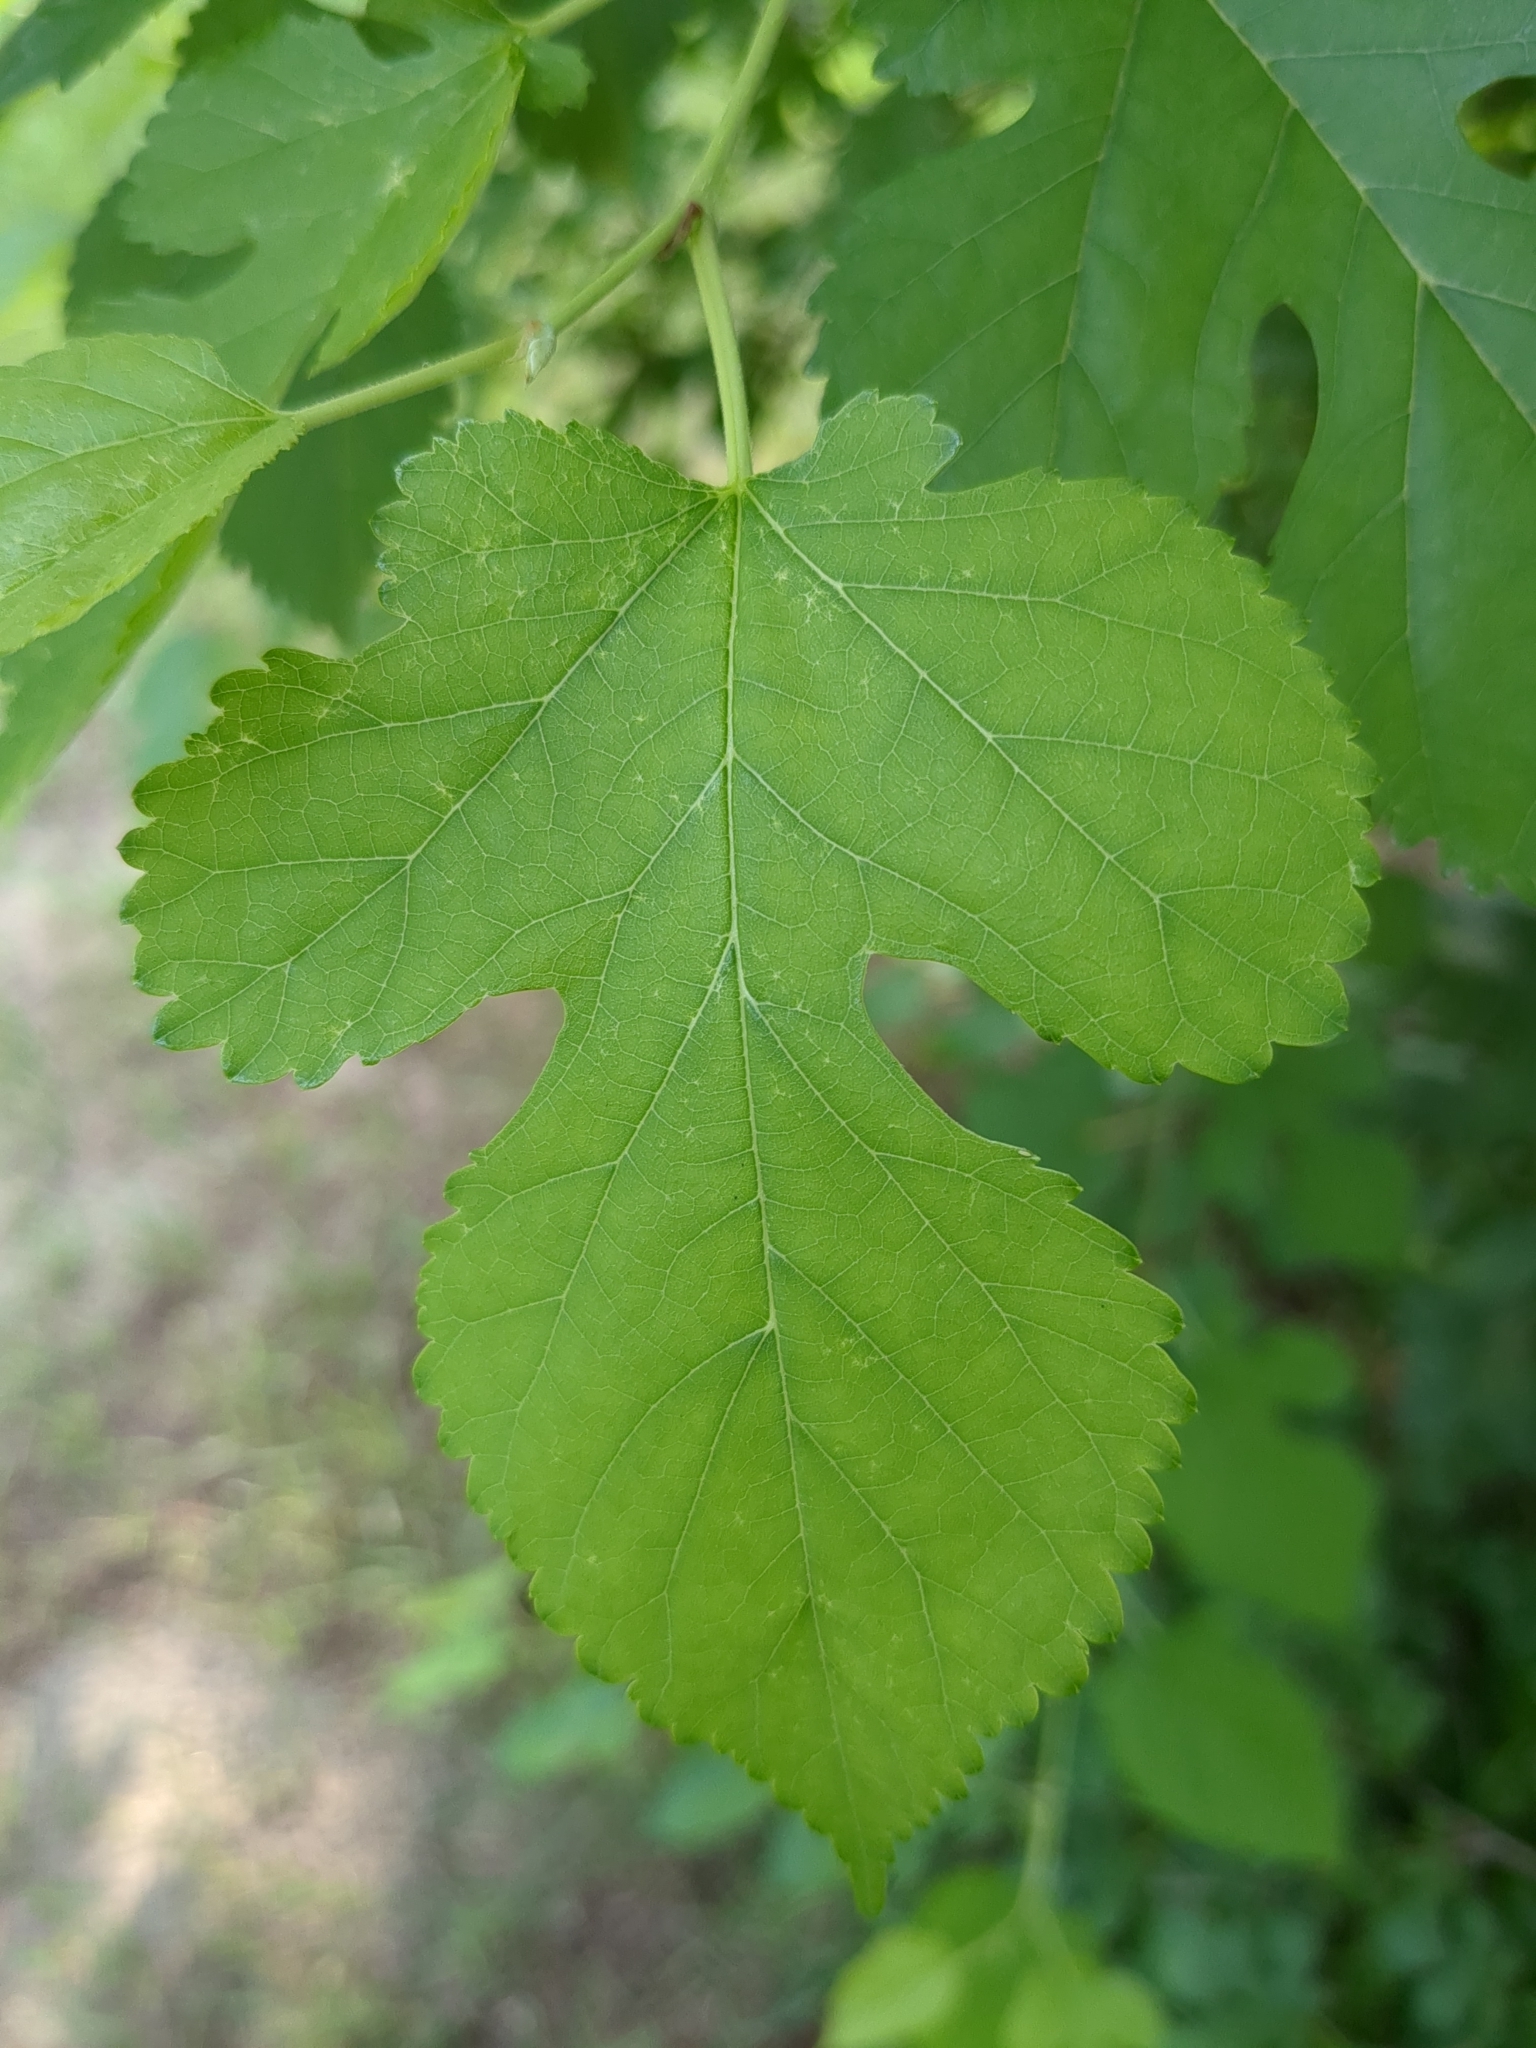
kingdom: Plantae
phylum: Tracheophyta
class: Magnoliopsida
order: Rosales
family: Moraceae
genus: Morus
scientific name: Morus alba
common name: White mulberry
